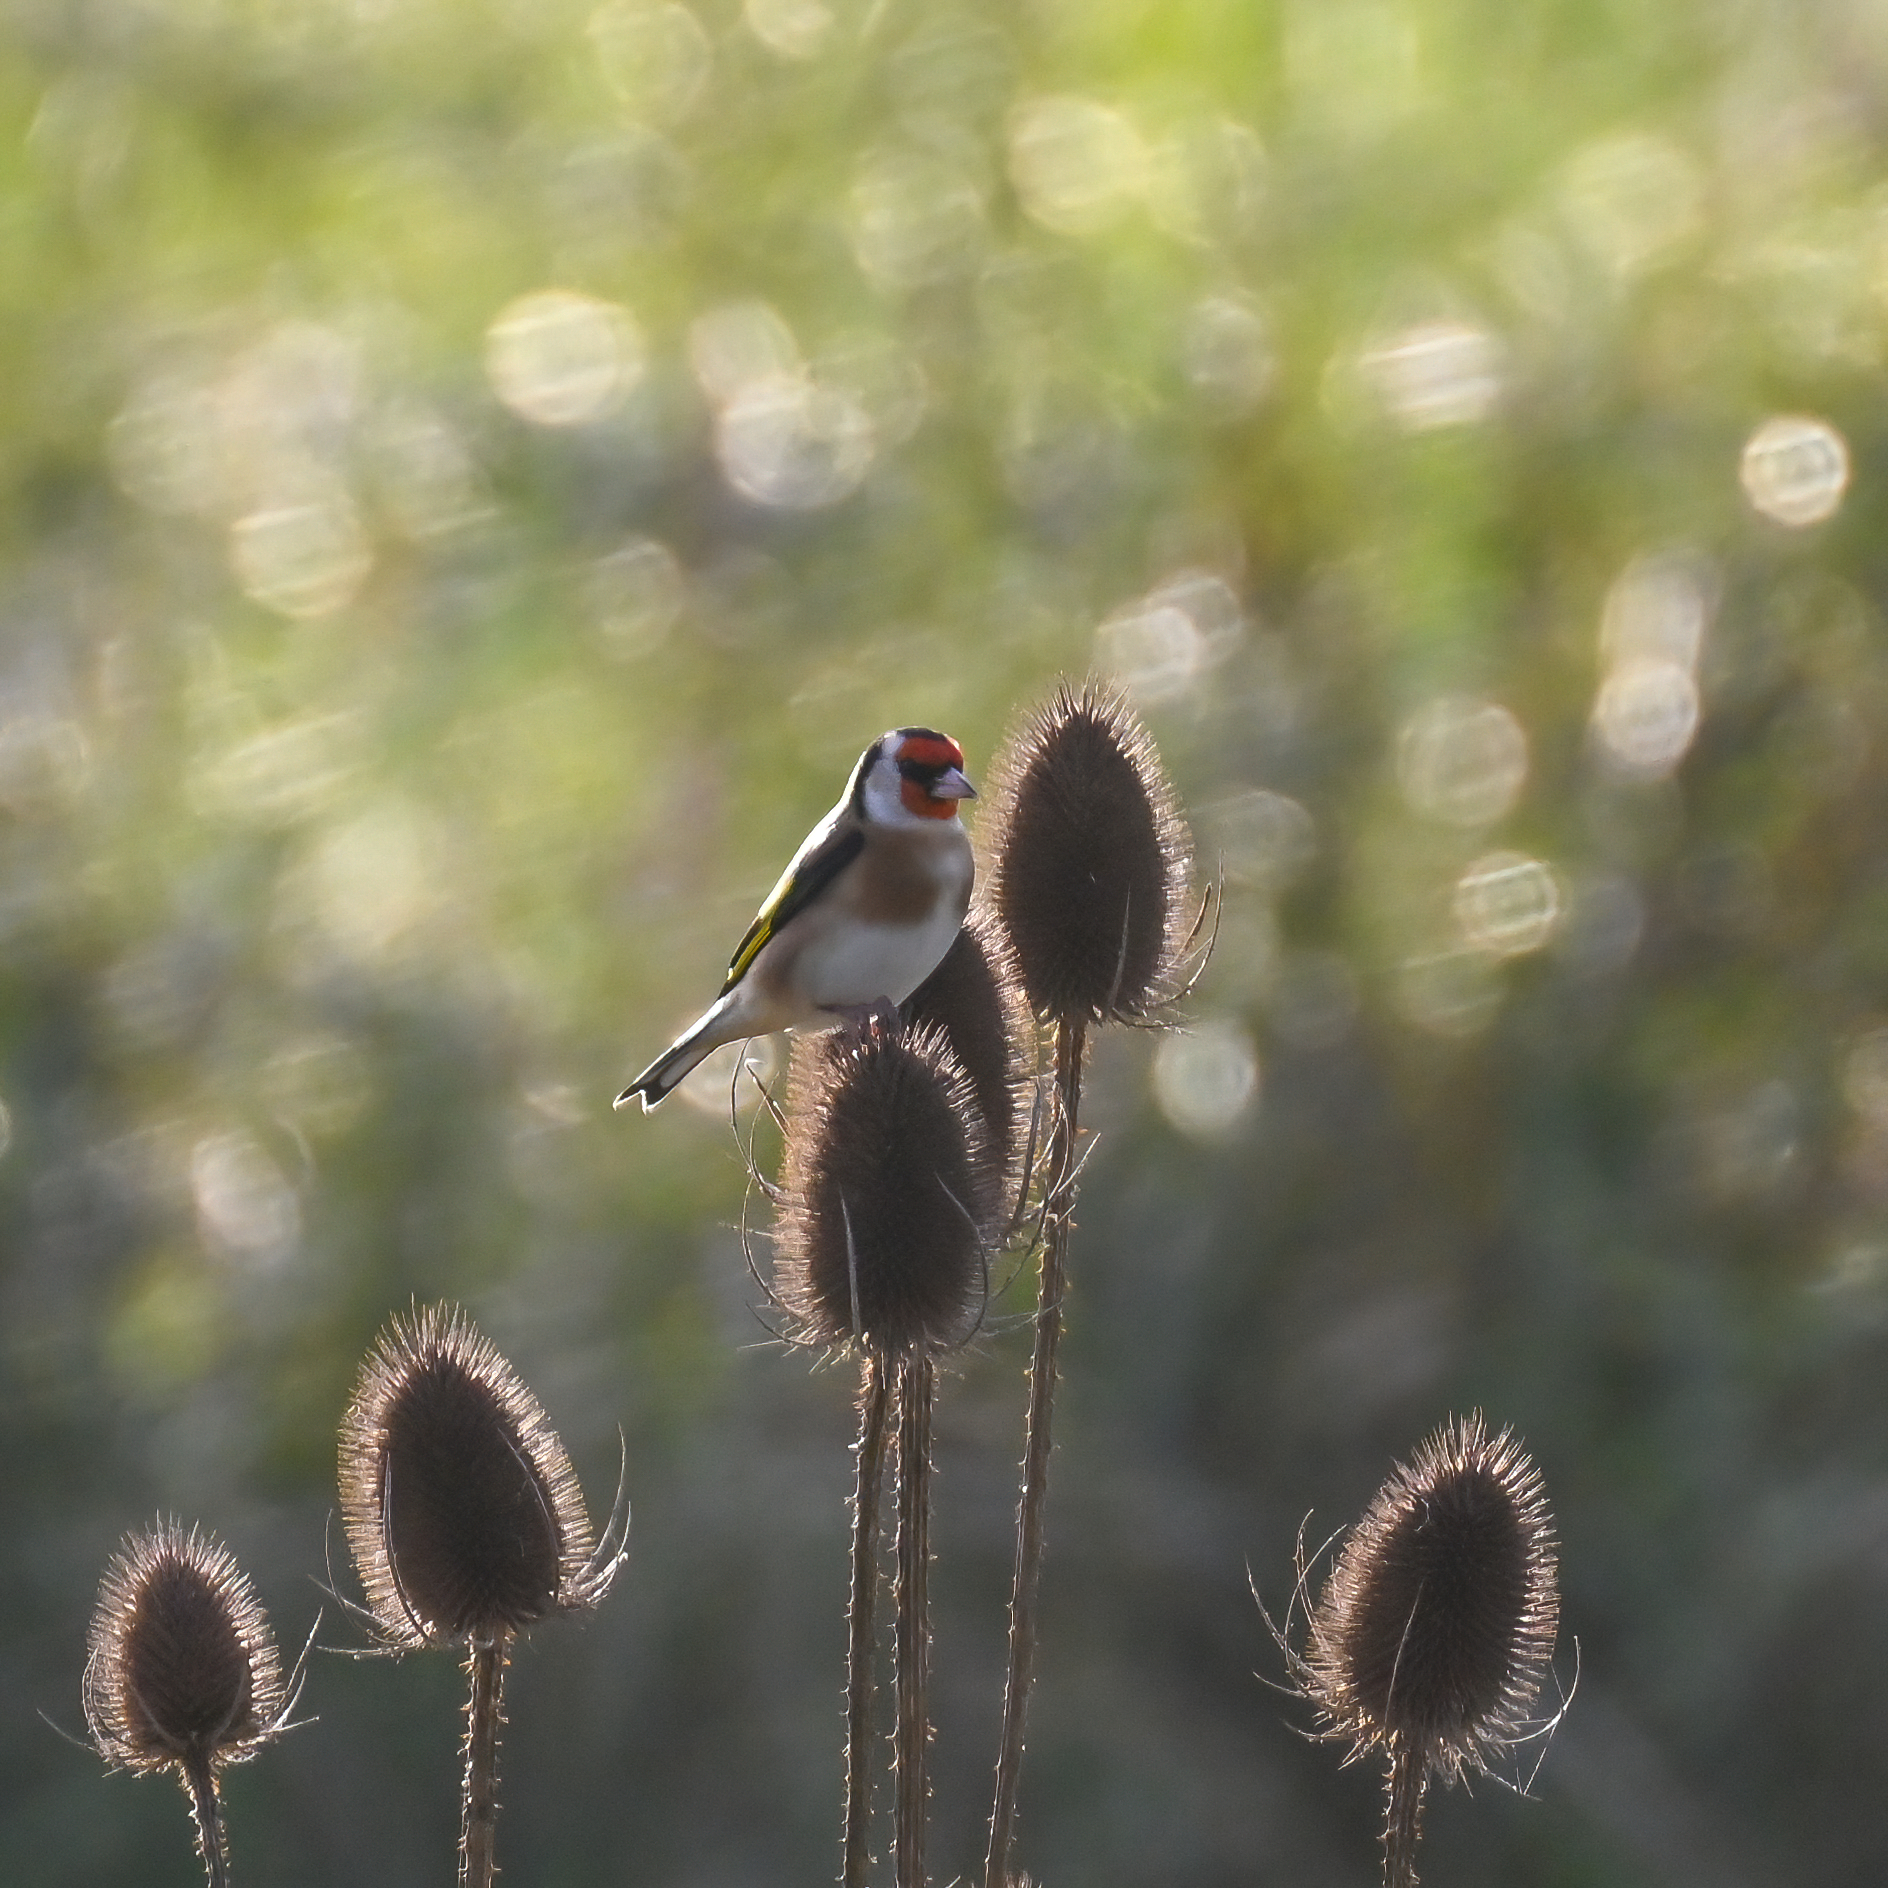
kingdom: Animalia
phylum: Chordata
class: Aves
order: Passeriformes
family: Fringillidae
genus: Carduelis
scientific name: Carduelis carduelis
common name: European goldfinch
